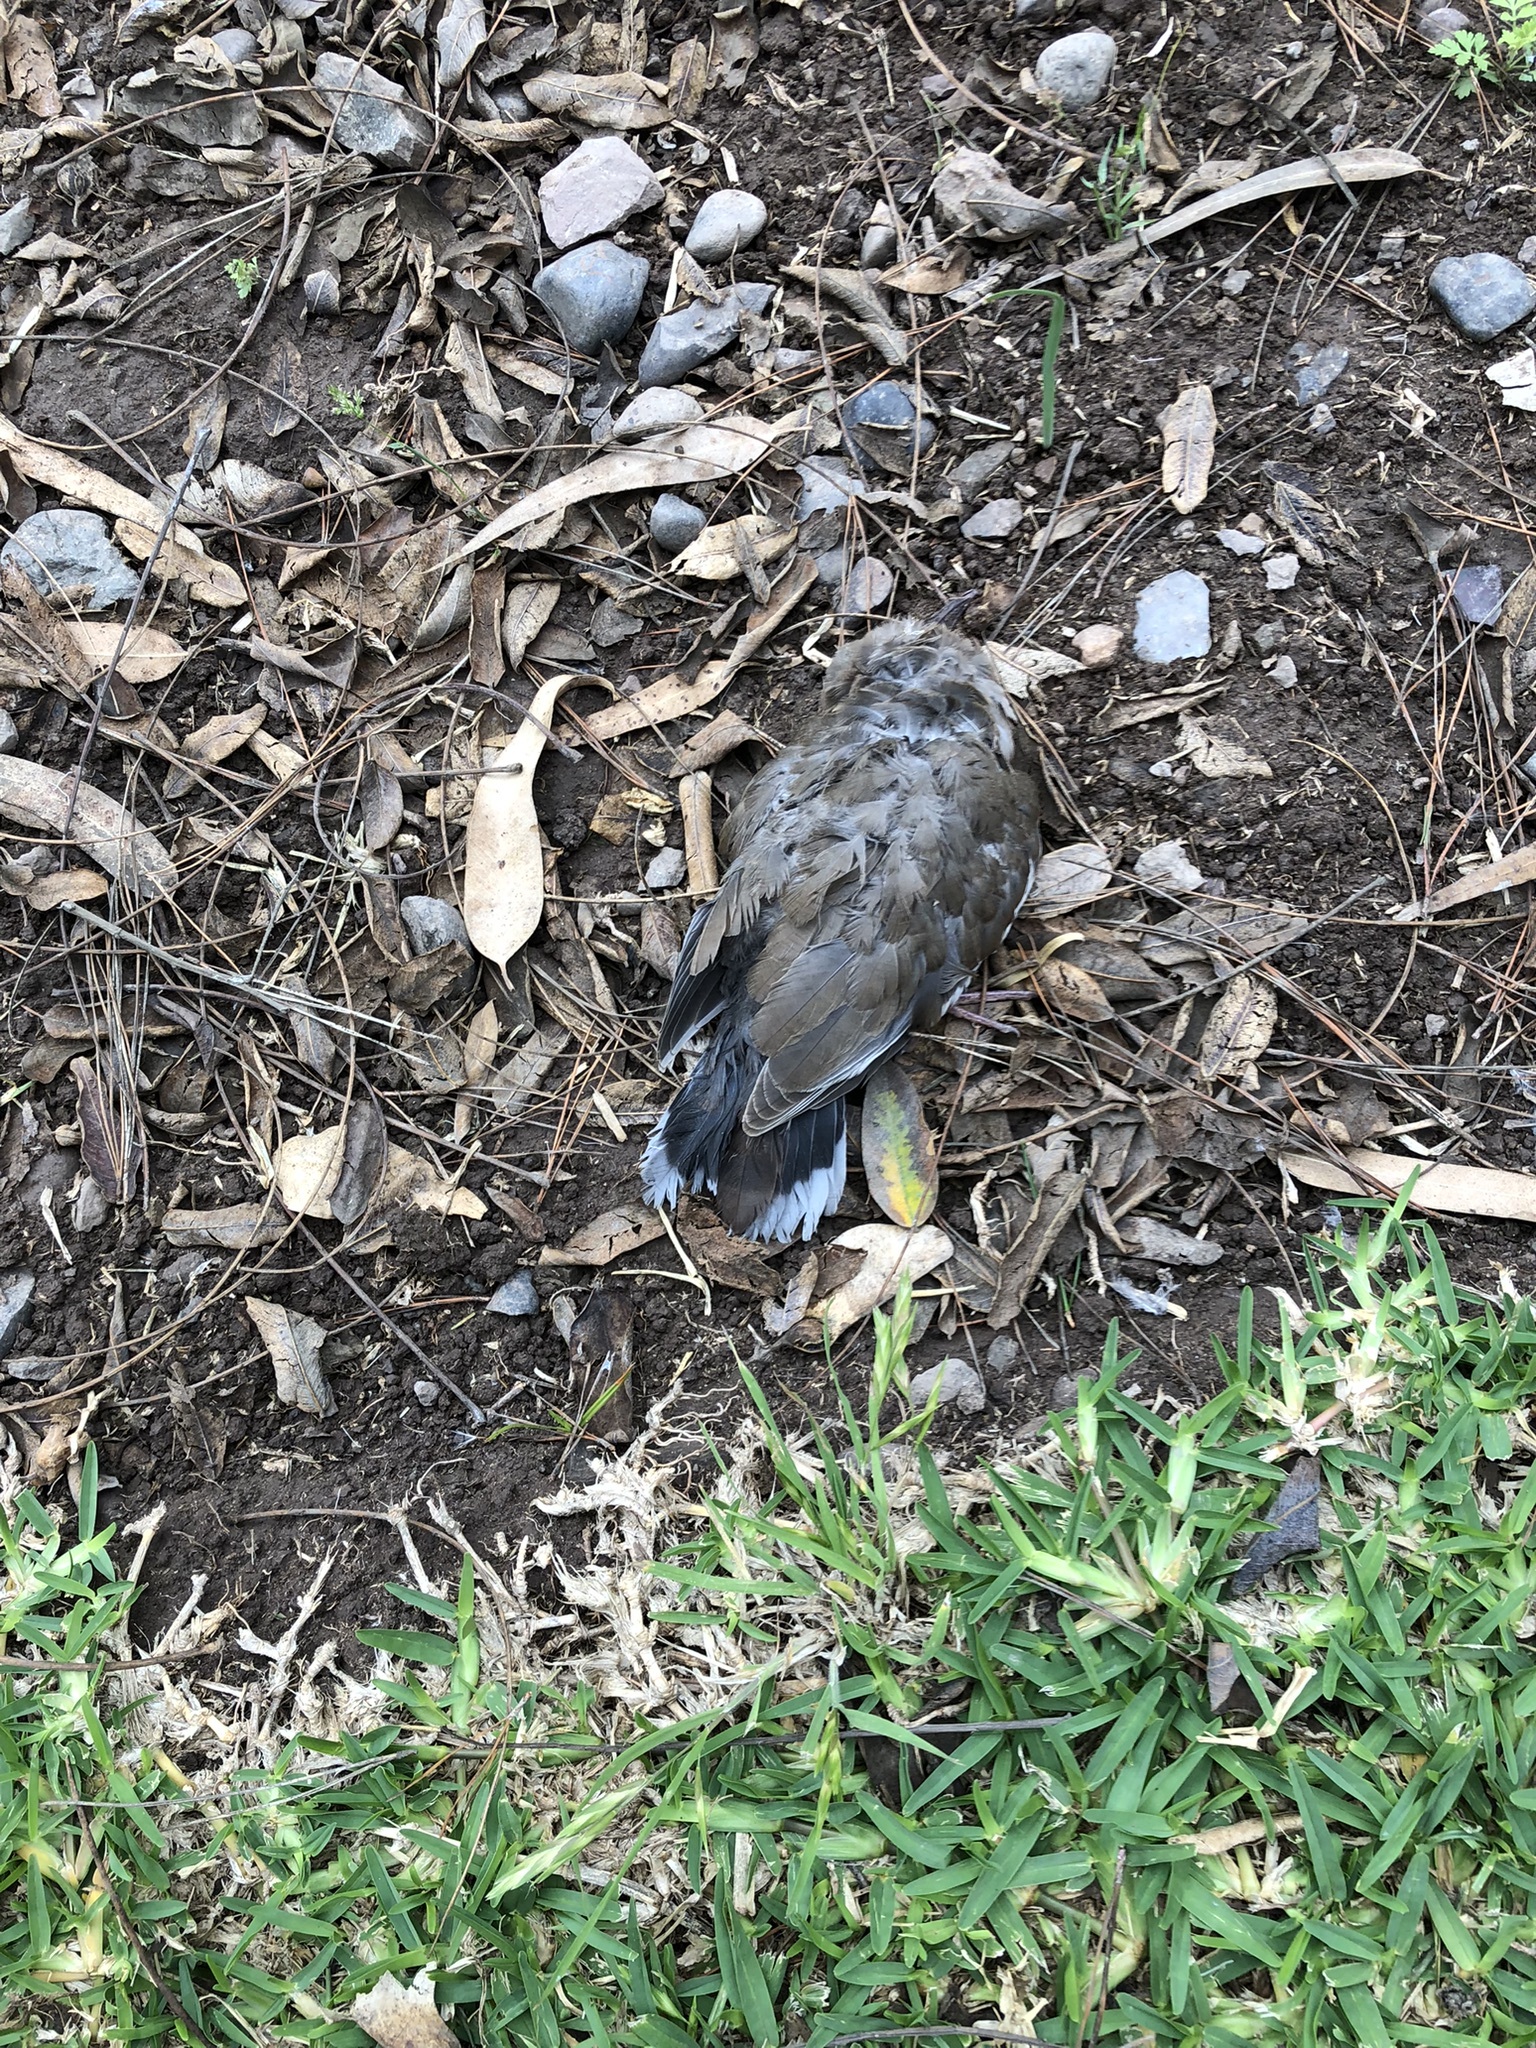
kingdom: Animalia
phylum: Chordata
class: Aves
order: Columbiformes
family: Columbidae
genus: Zenaida
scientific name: Zenaida meloda
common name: West peruvian dove
